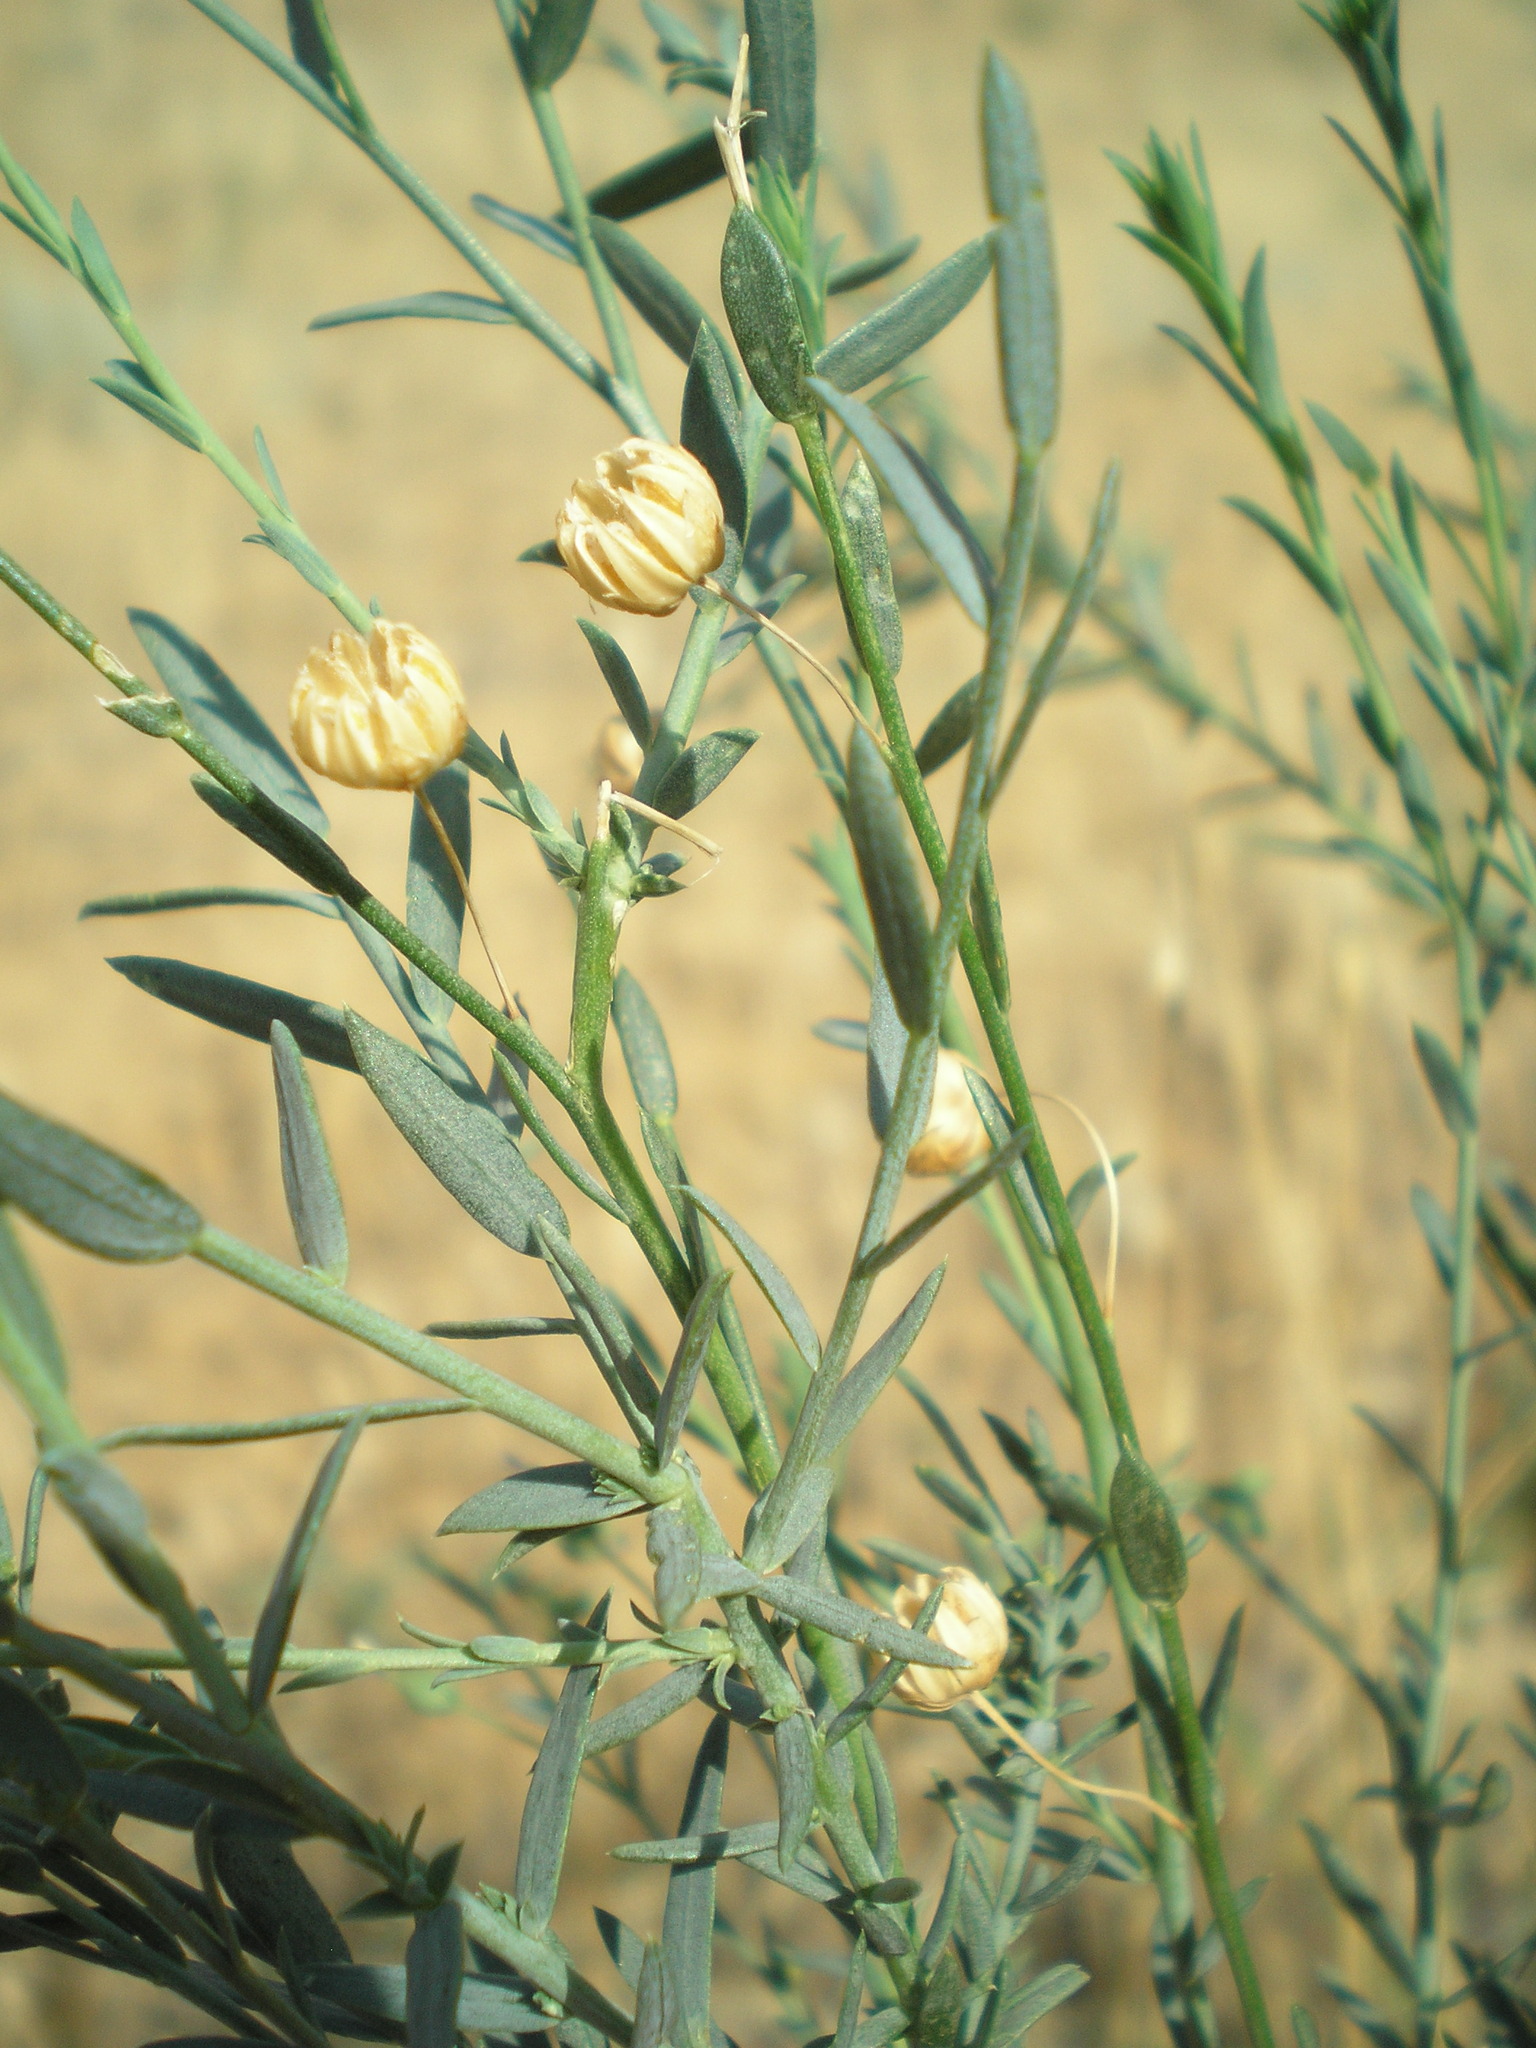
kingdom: Plantae
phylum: Tracheophyta
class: Magnoliopsida
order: Malpighiales
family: Linaceae
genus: Linum
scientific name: Linum austriacum
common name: Austrian flax
